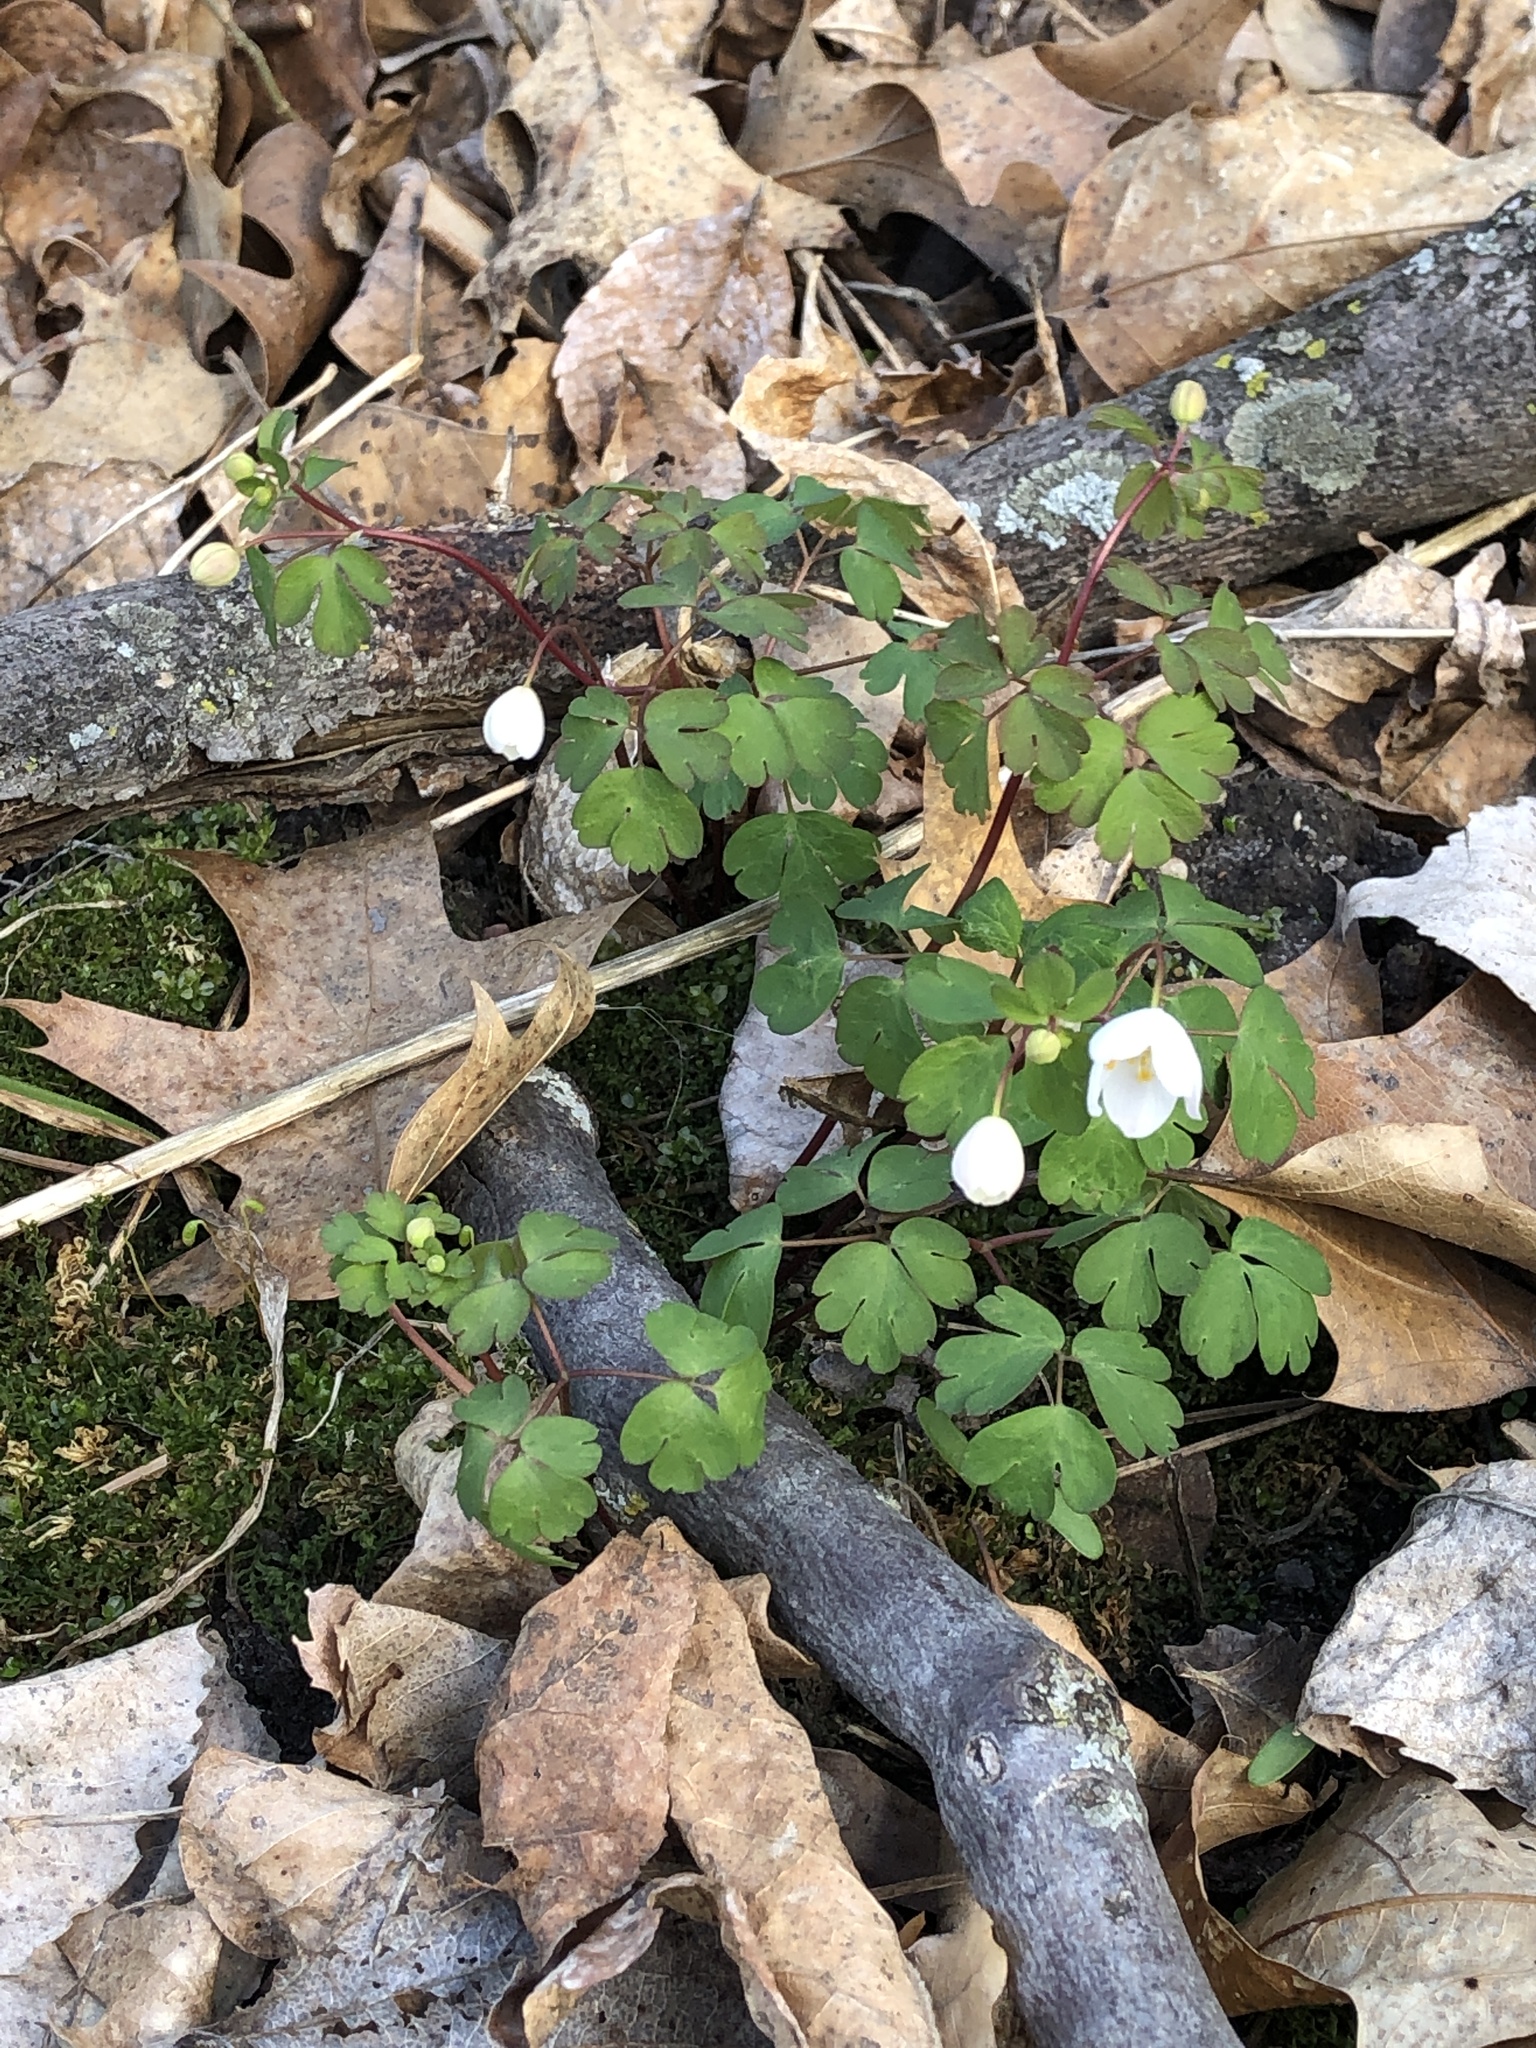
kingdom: Plantae
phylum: Tracheophyta
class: Magnoliopsida
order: Ranunculales
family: Ranunculaceae
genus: Enemion
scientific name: Enemion biternatum
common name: Eastern false rue-anemone
